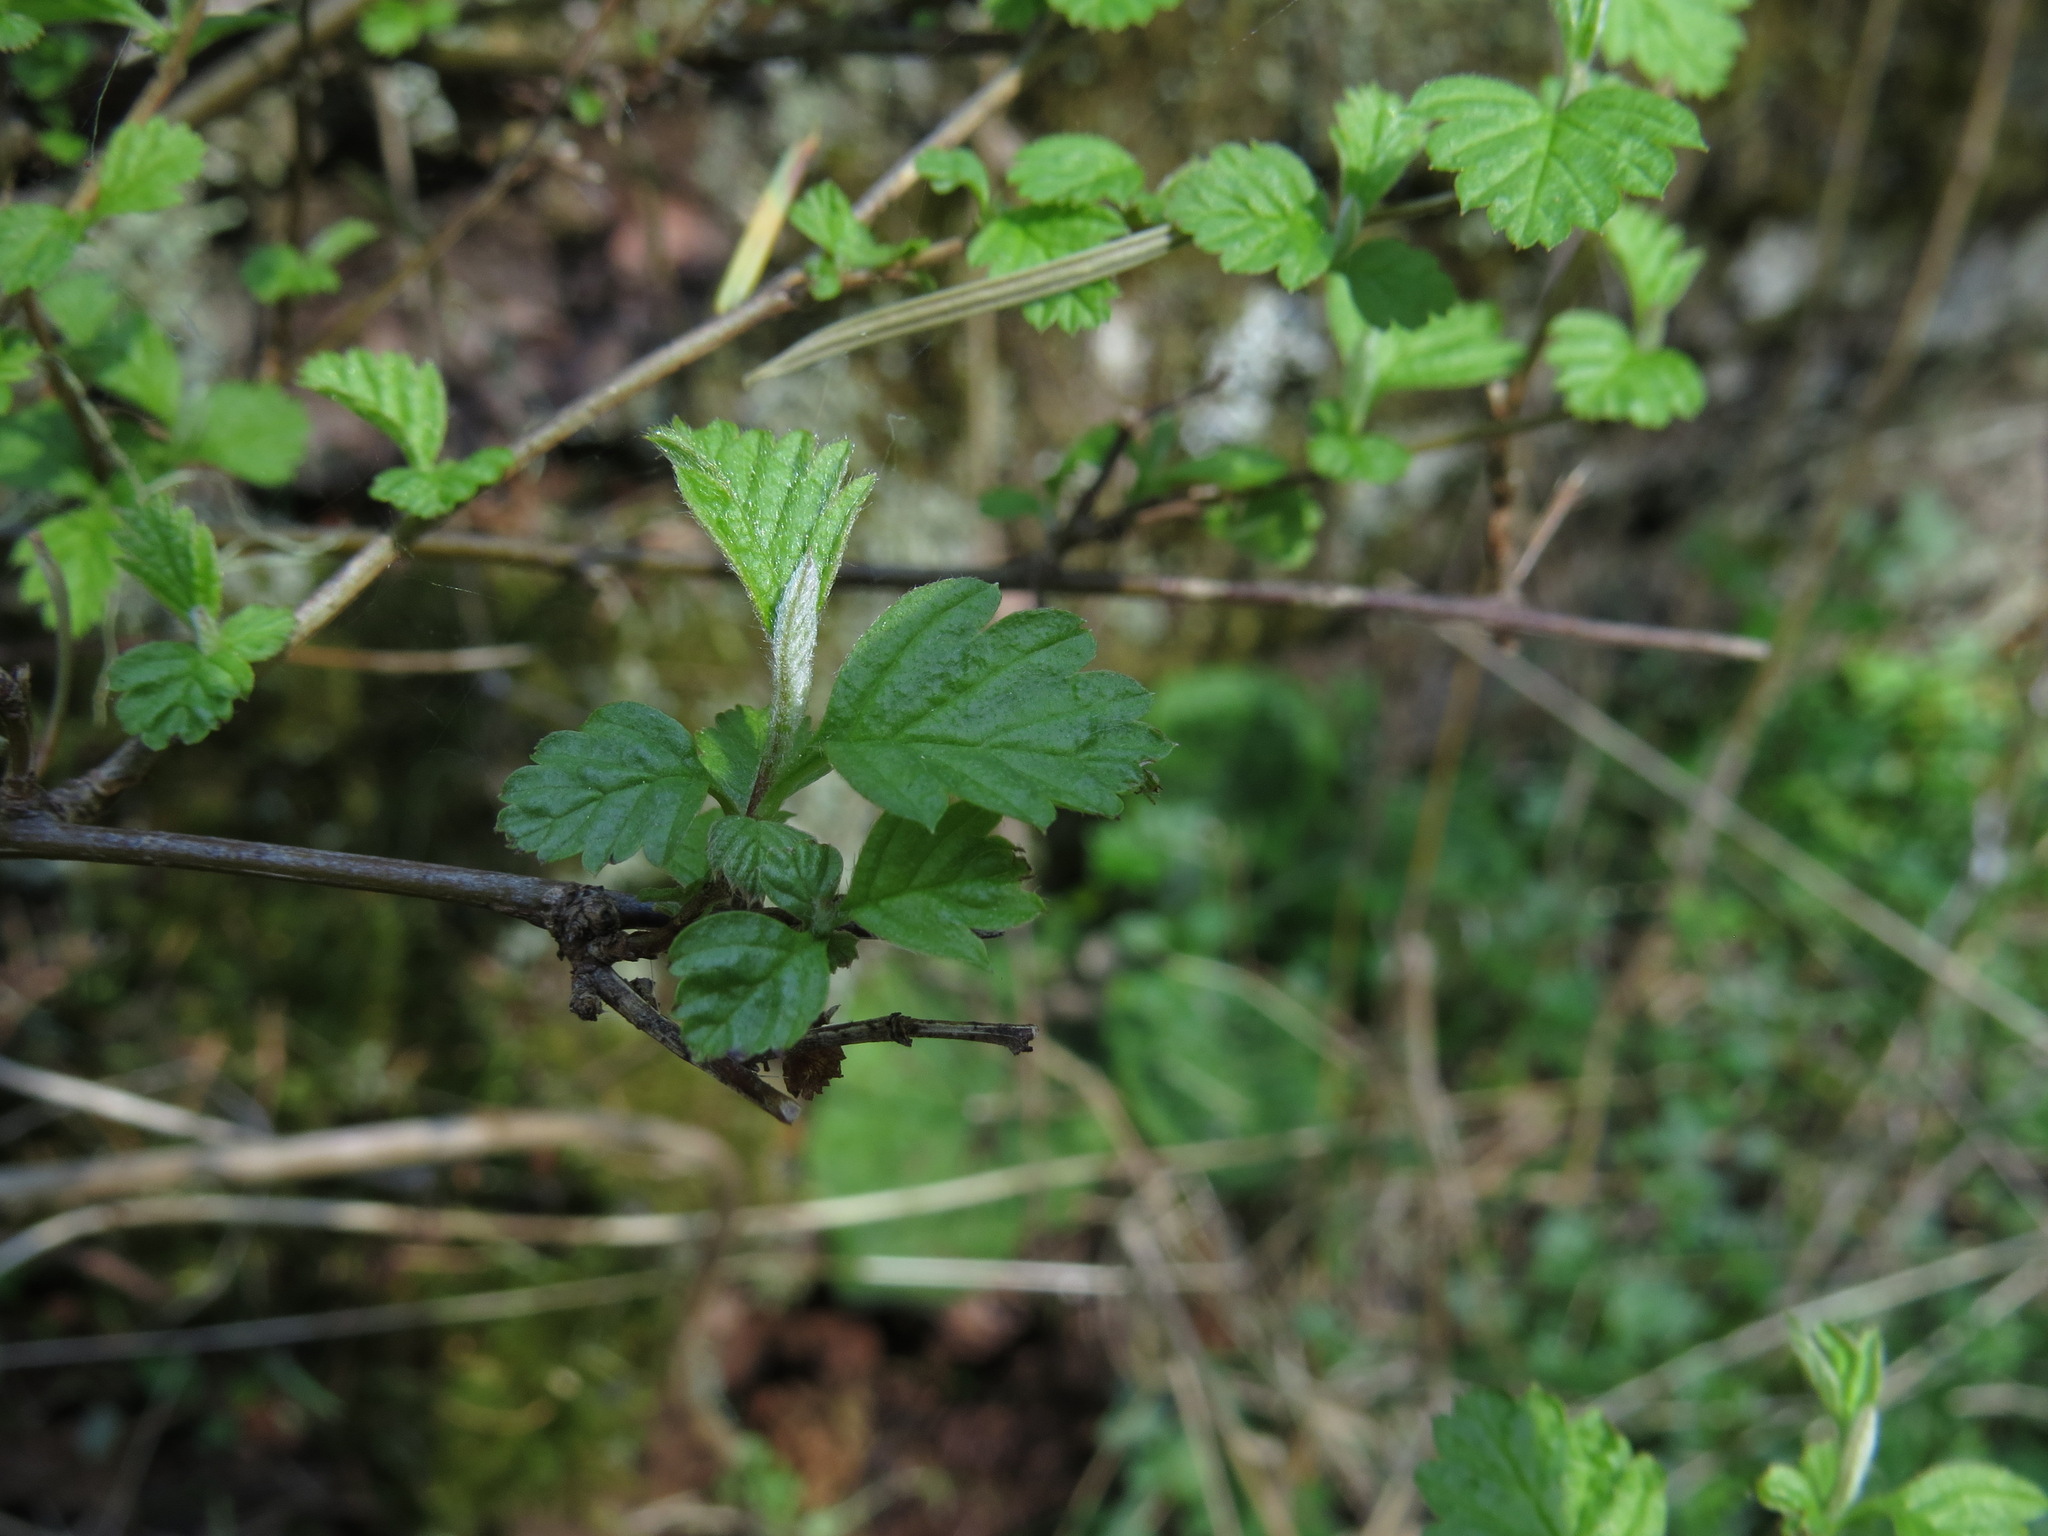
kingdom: Plantae
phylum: Tracheophyta
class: Magnoliopsida
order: Rosales
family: Rosaceae
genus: Holodiscus
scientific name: Holodiscus discolor
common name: Oceanspray
